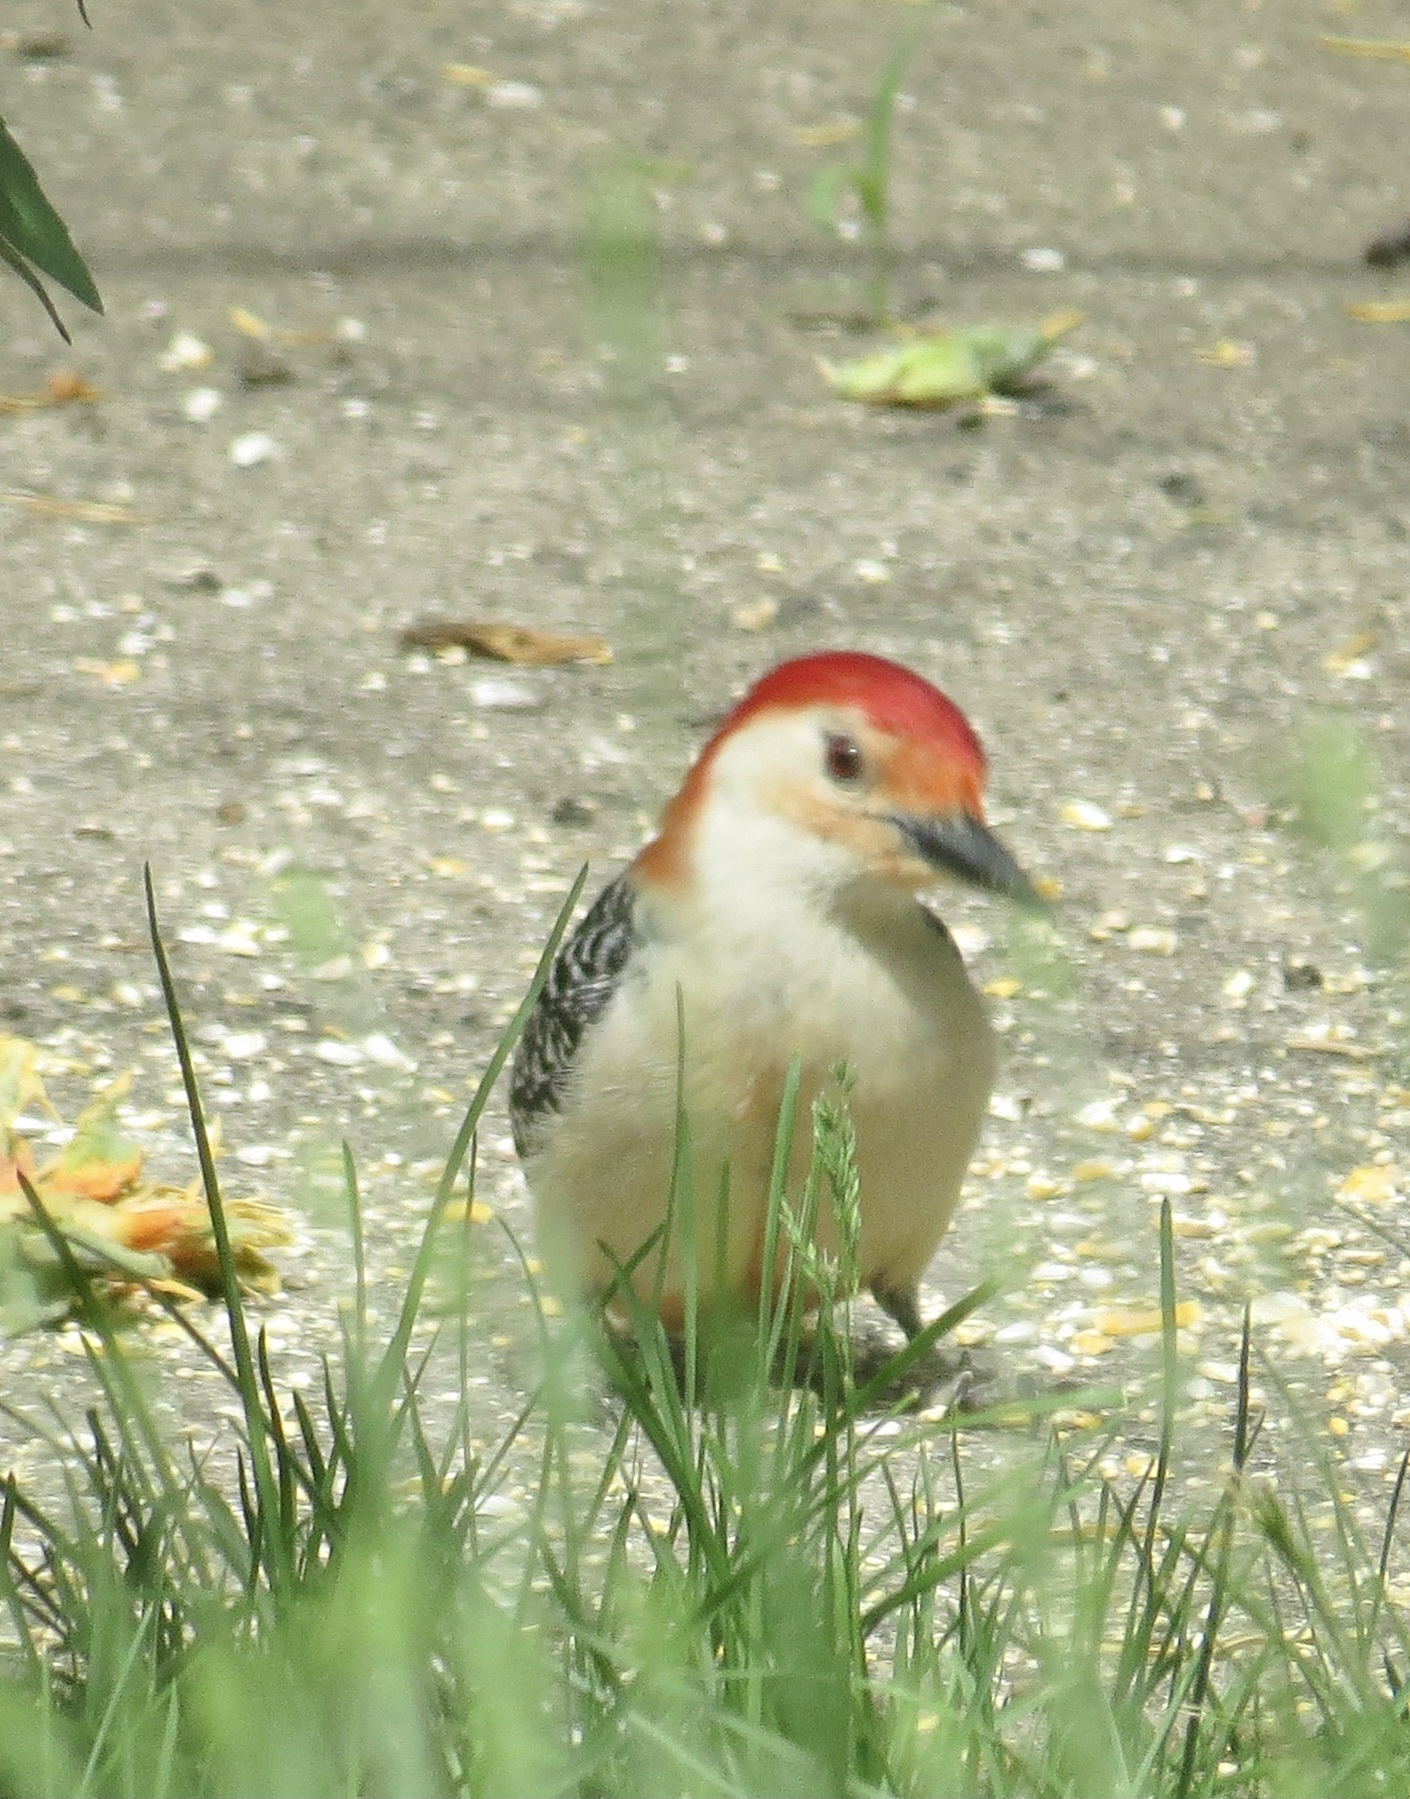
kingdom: Animalia
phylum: Chordata
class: Aves
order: Piciformes
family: Picidae
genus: Melanerpes
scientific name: Melanerpes carolinus
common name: Red-bellied woodpecker
